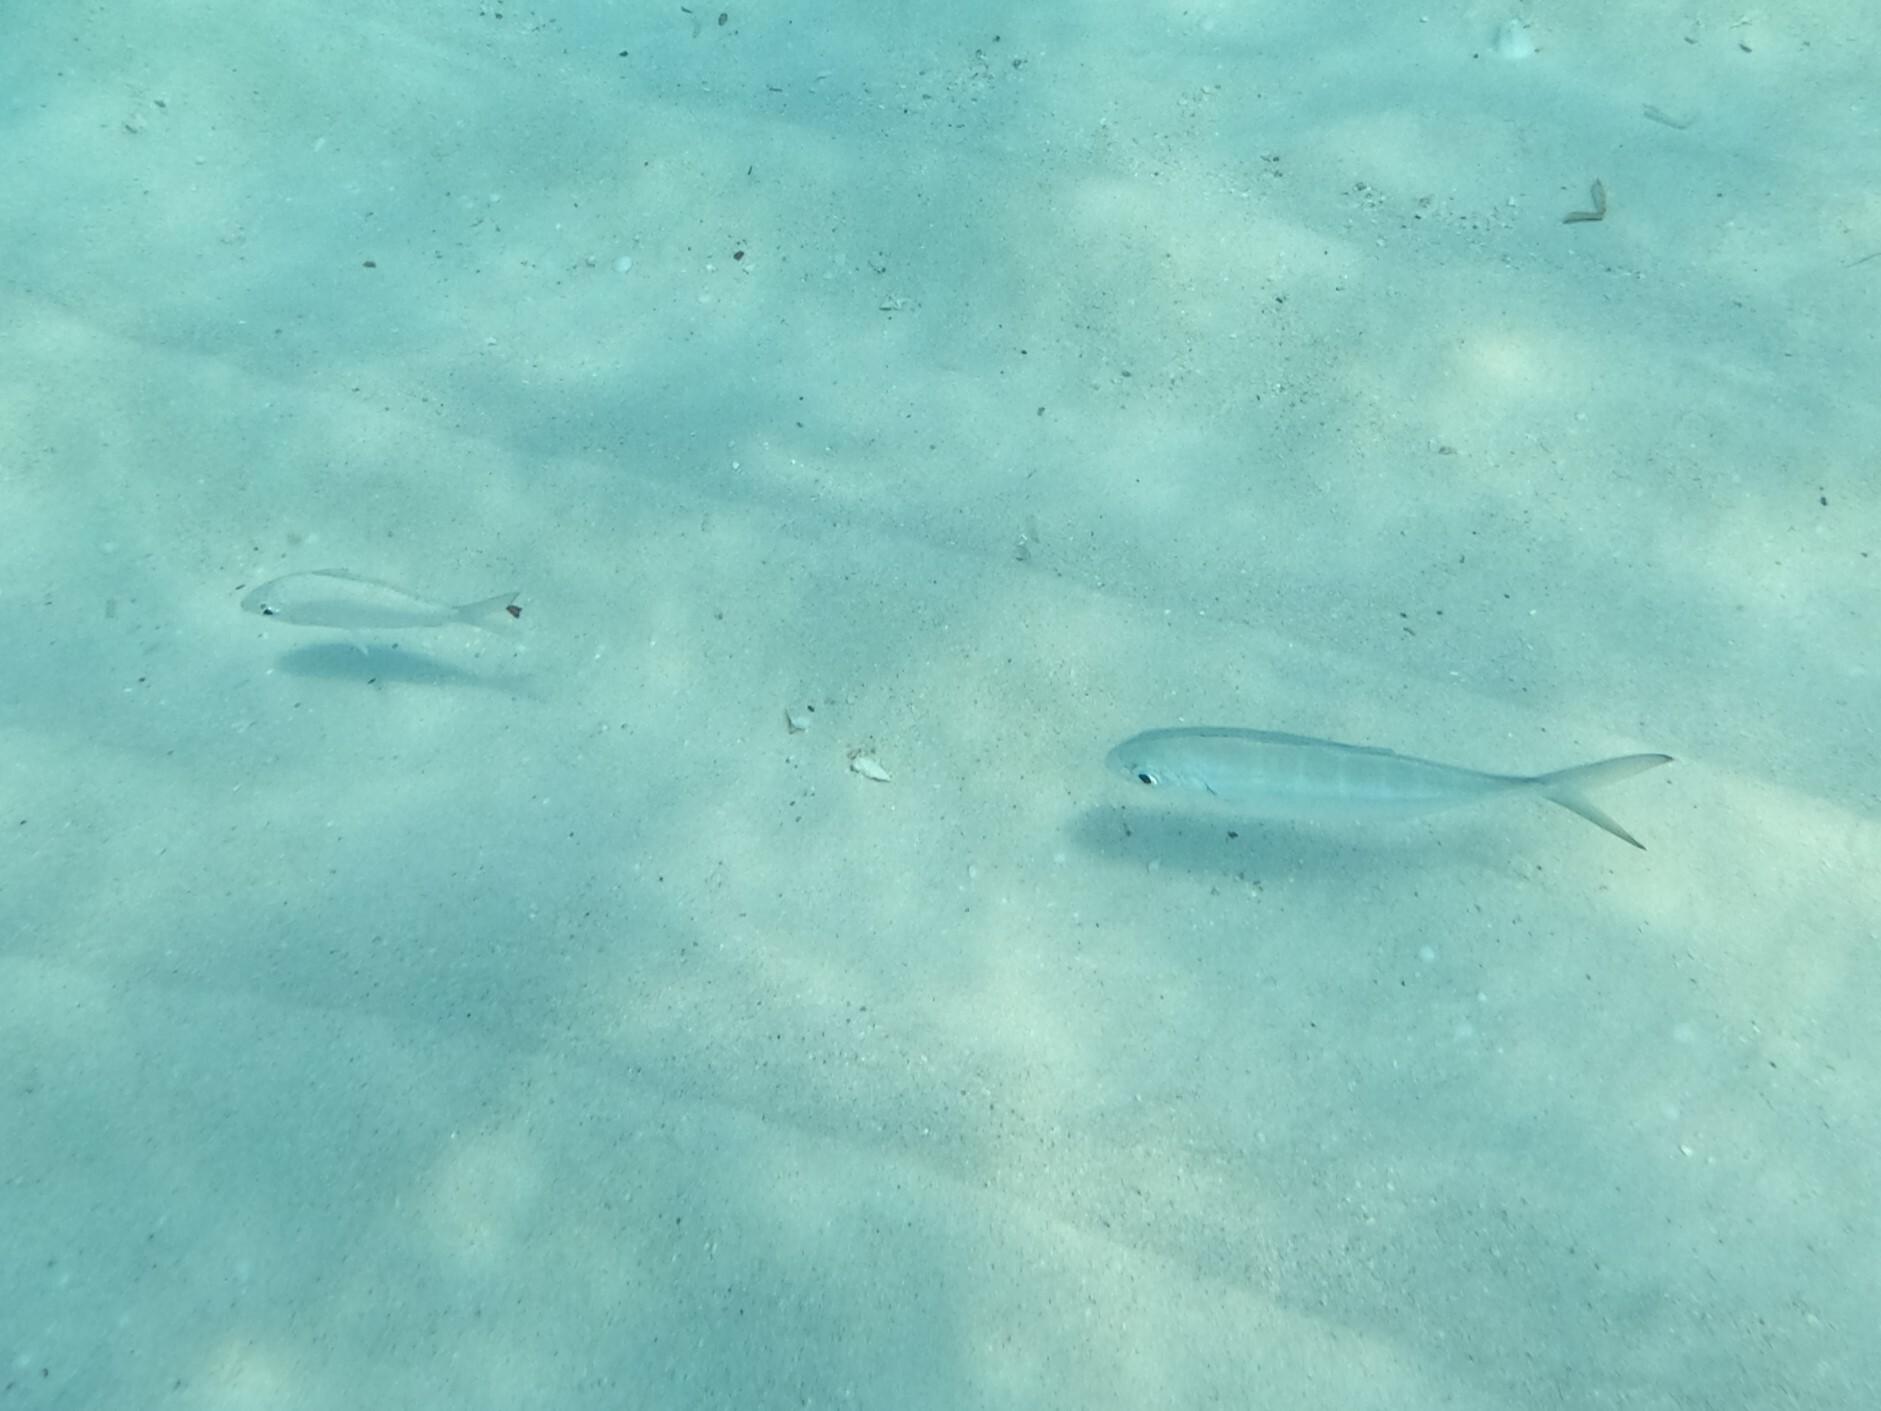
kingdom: Animalia
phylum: Chordata
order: Perciformes
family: Carangidae
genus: Caranx
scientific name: Caranx crysos
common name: Blue runner
